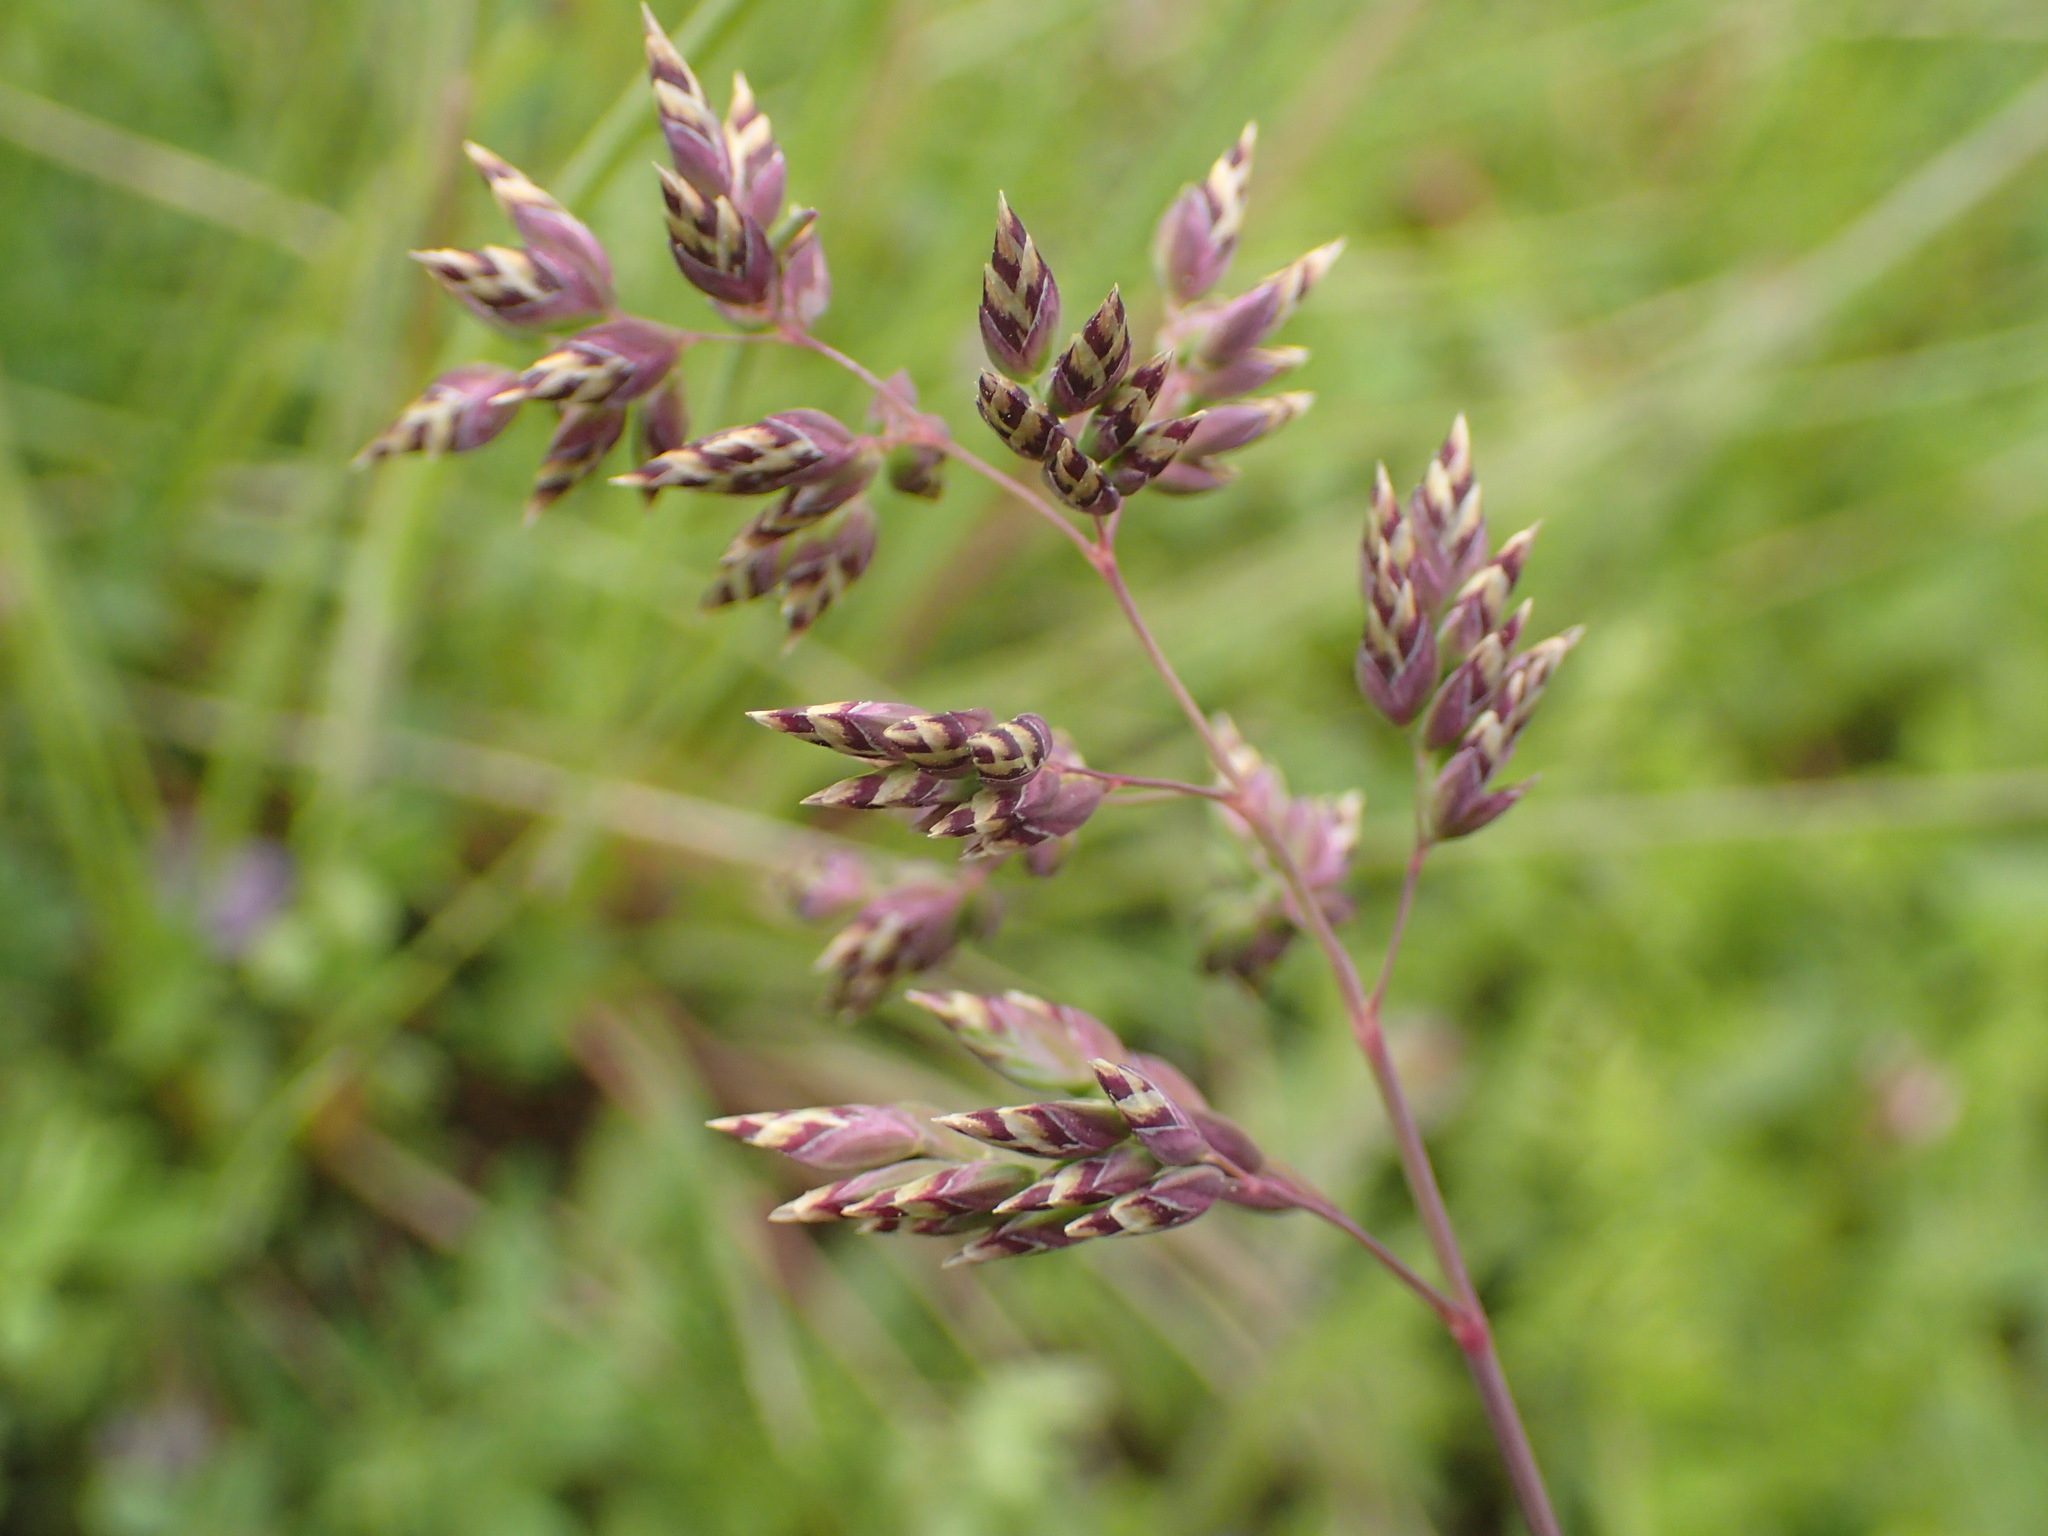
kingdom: Plantae
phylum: Tracheophyta
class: Liliopsida
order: Poales
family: Poaceae
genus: Poa
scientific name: Poa alpina
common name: Alpine bluegrass
